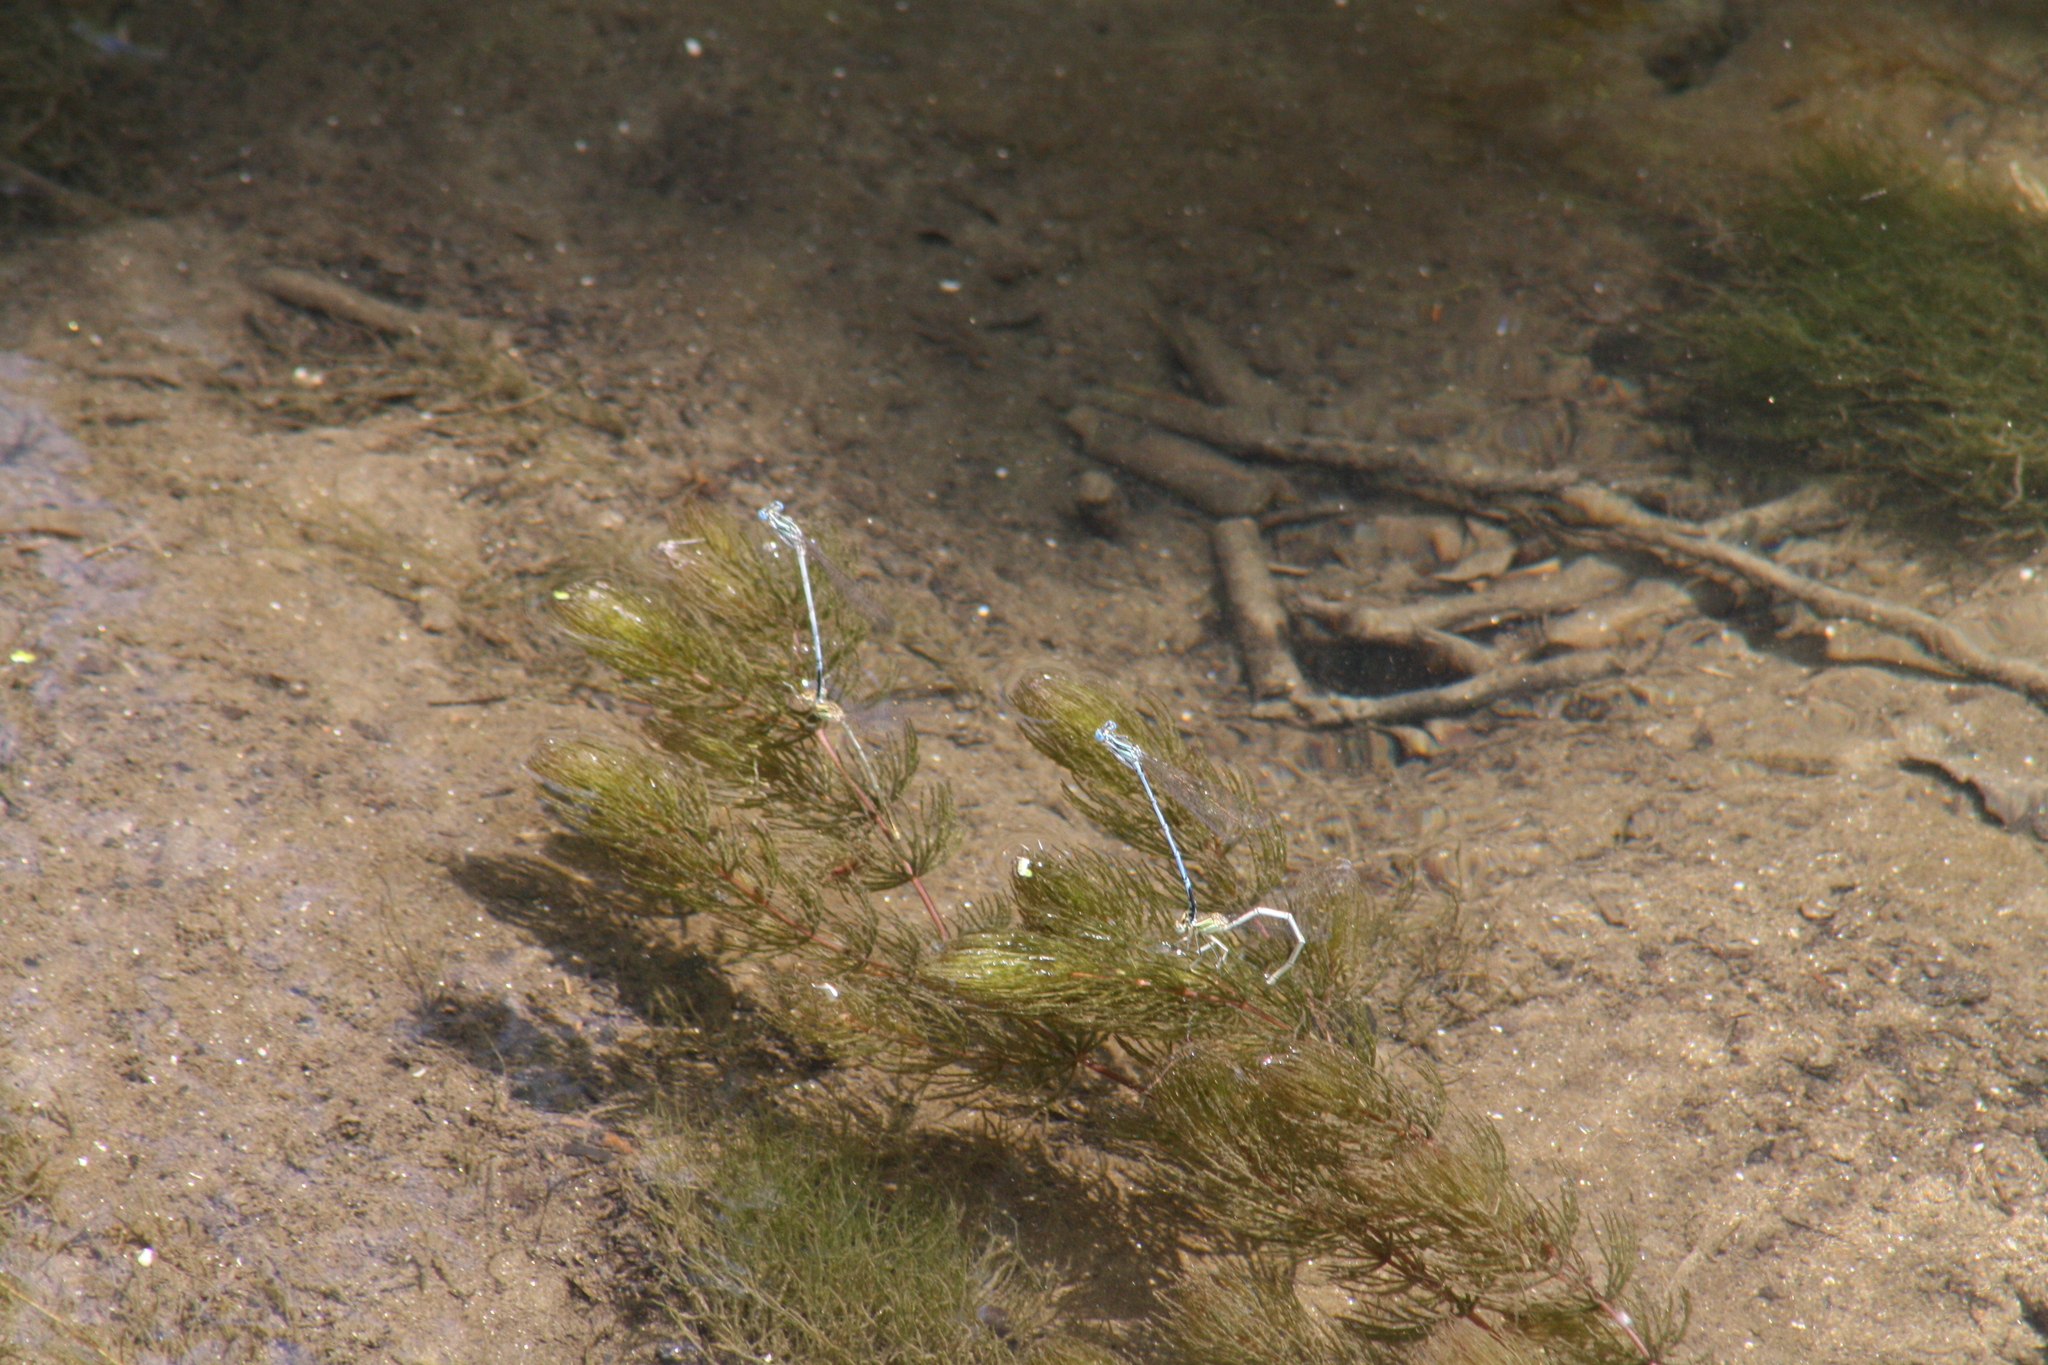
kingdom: Animalia
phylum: Arthropoda
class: Insecta
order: Odonata
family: Platycnemididae
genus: Platycnemis
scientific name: Platycnemis pennipes
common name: White-legged damselfly
